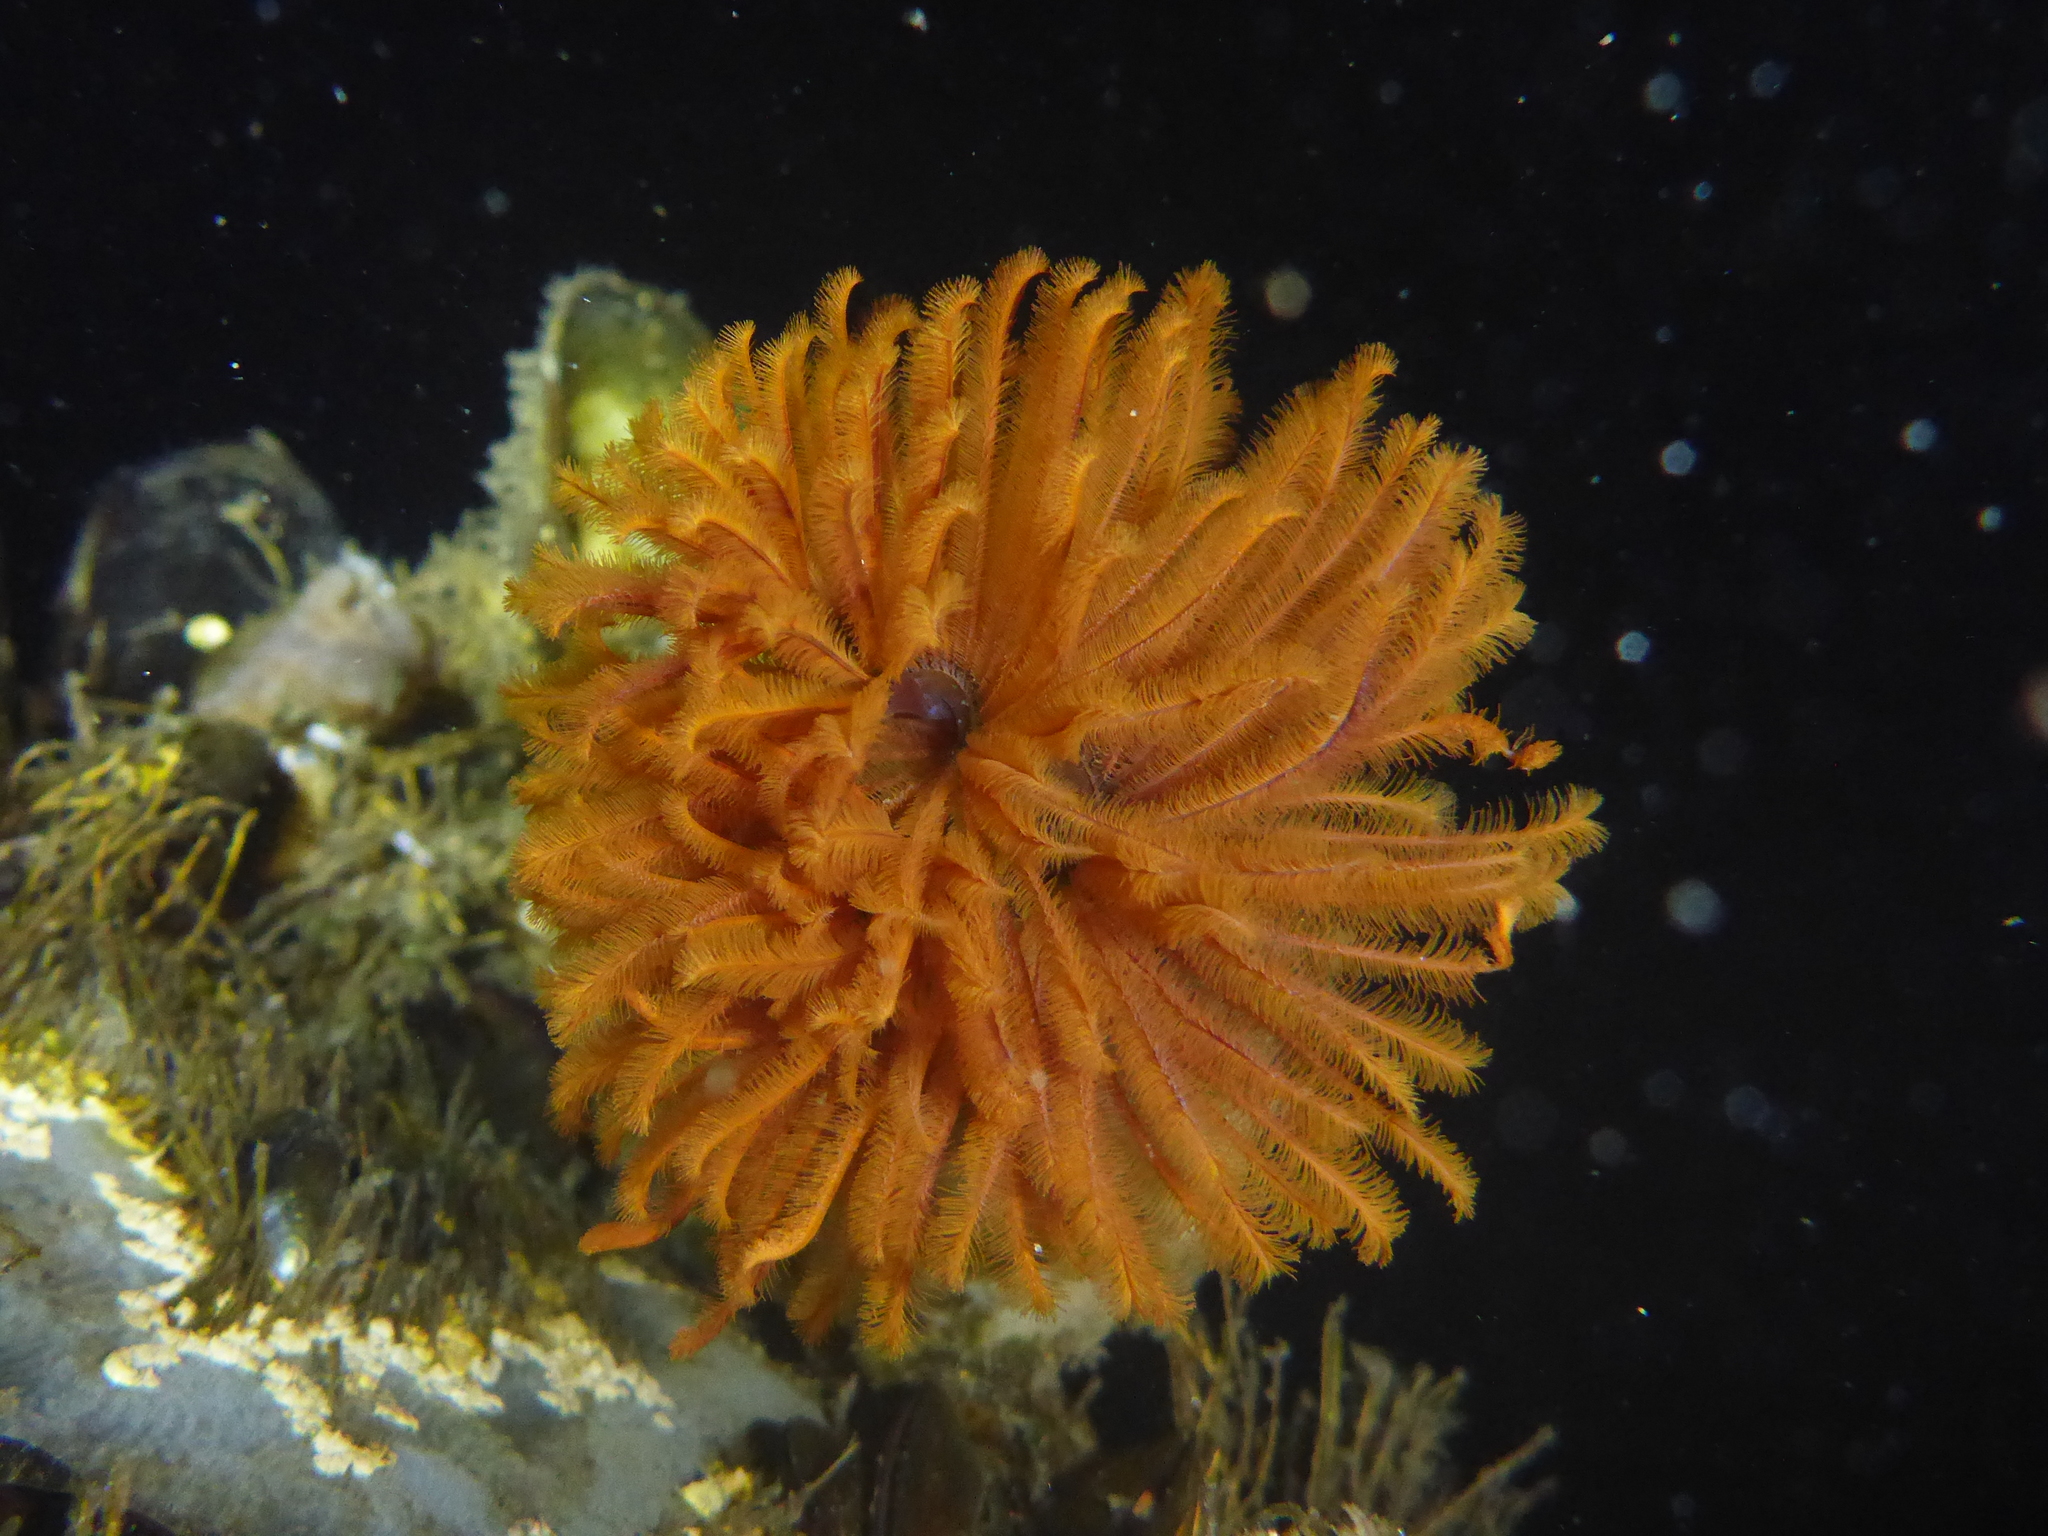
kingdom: Animalia
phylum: Annelida
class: Polychaeta
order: Sabellida
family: Sabellidae
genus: Eudistylia
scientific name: Eudistylia polymorpha
